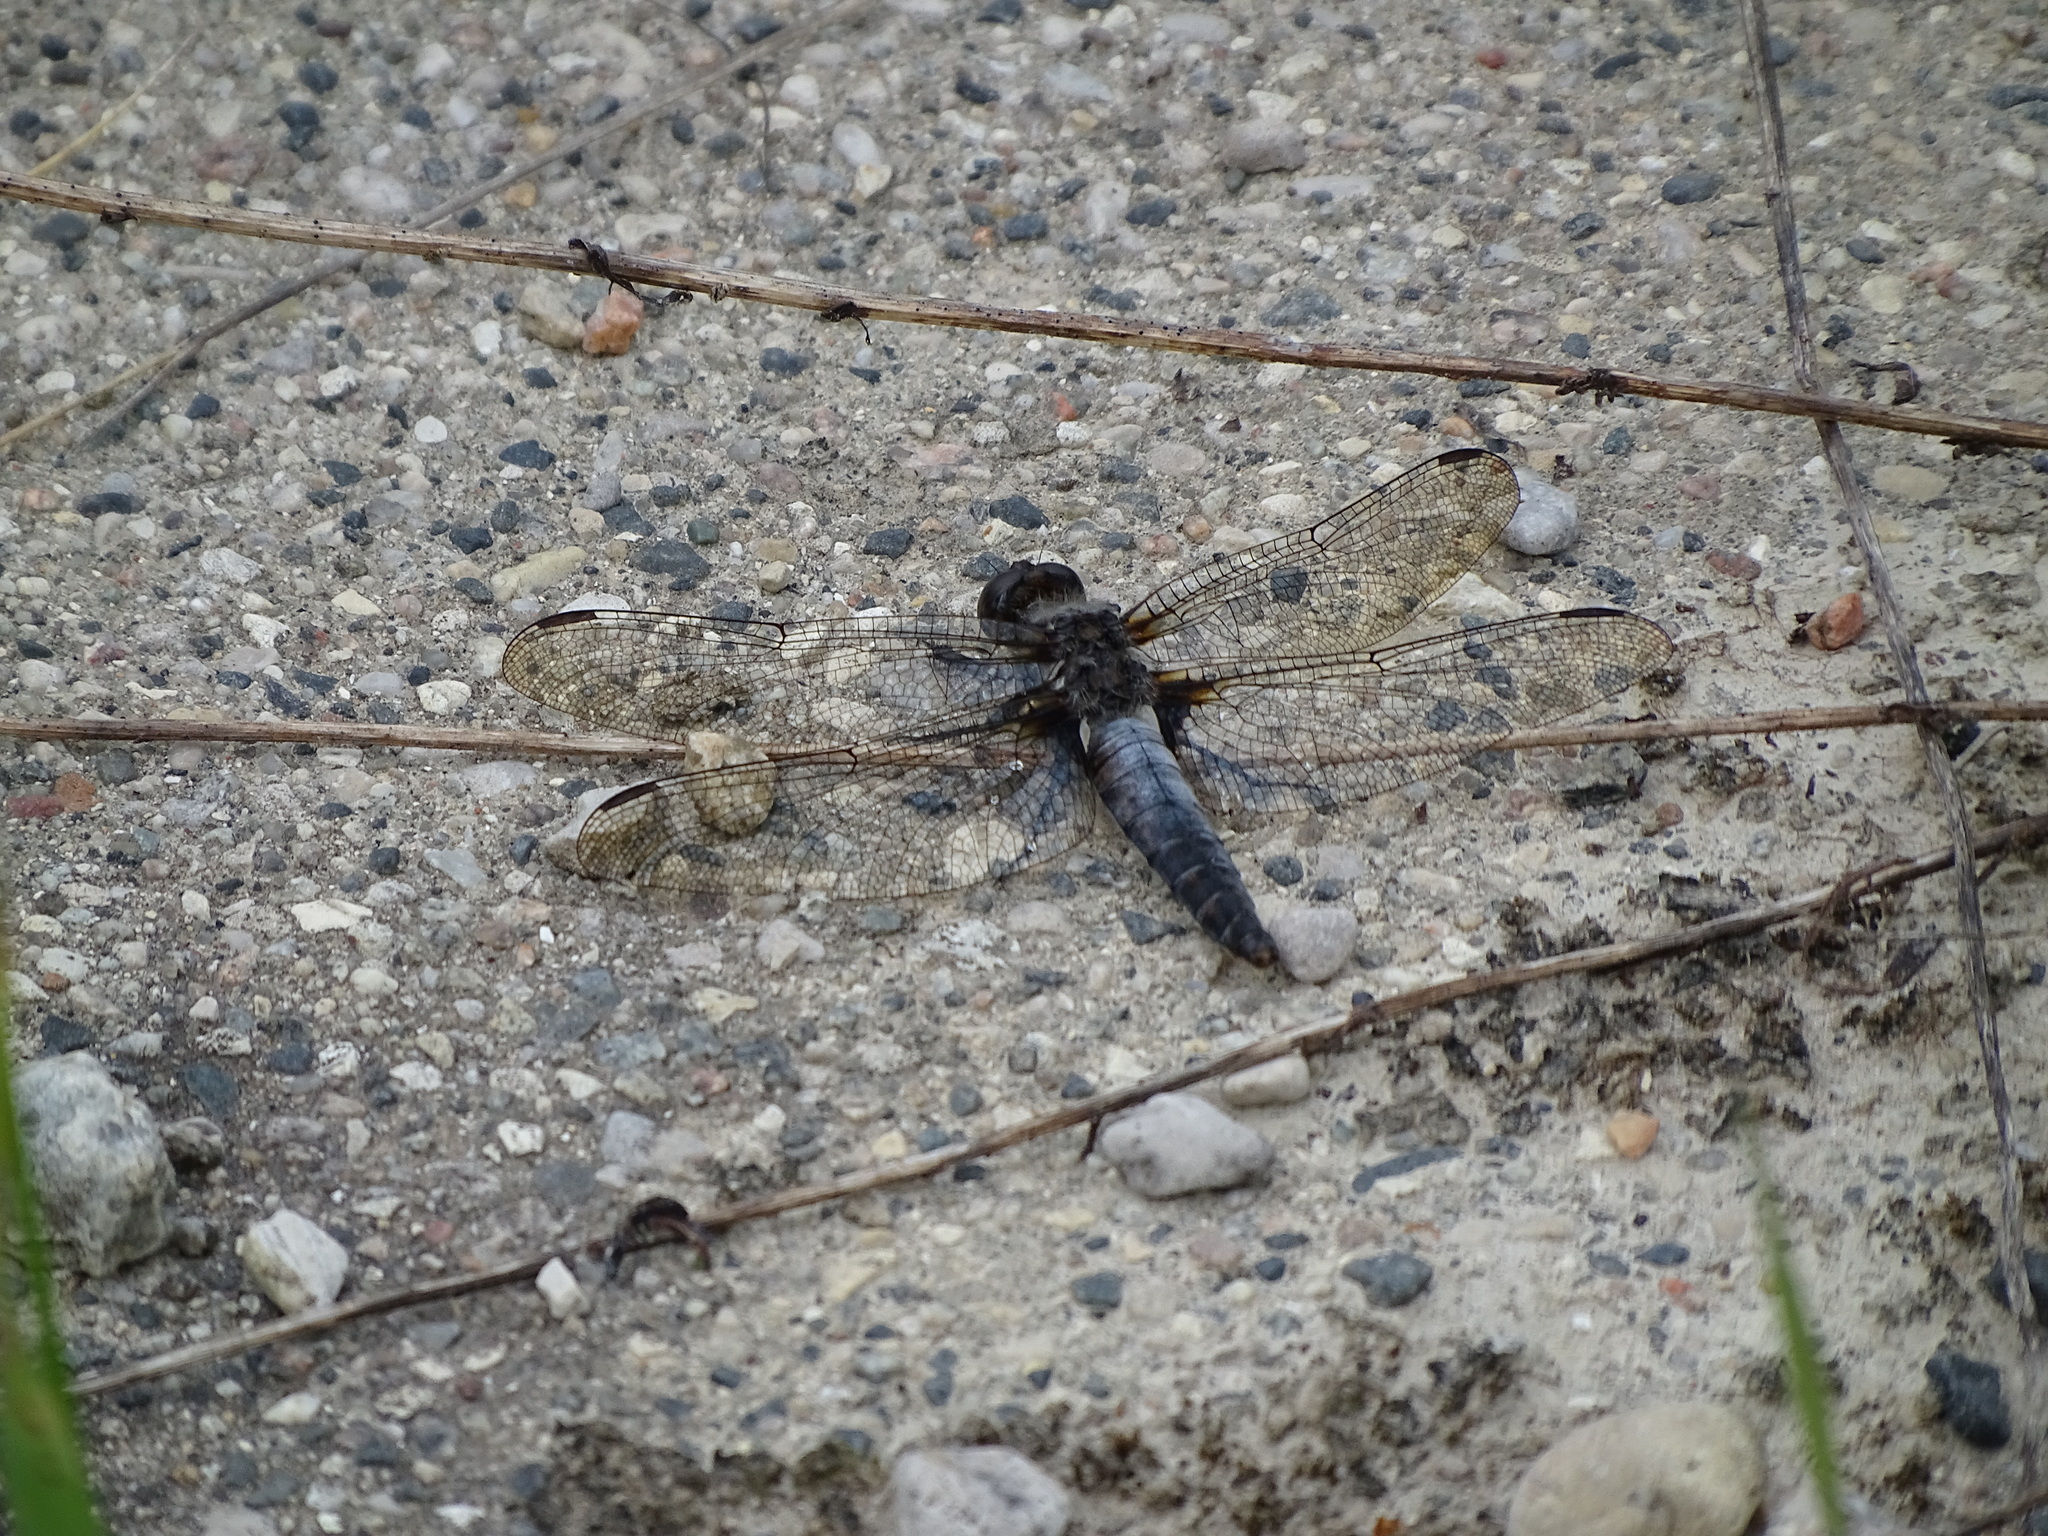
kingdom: Animalia
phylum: Arthropoda
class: Insecta
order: Odonata
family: Libellulidae
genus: Ladona
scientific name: Ladona julia
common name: Chalk-fronted corporal
